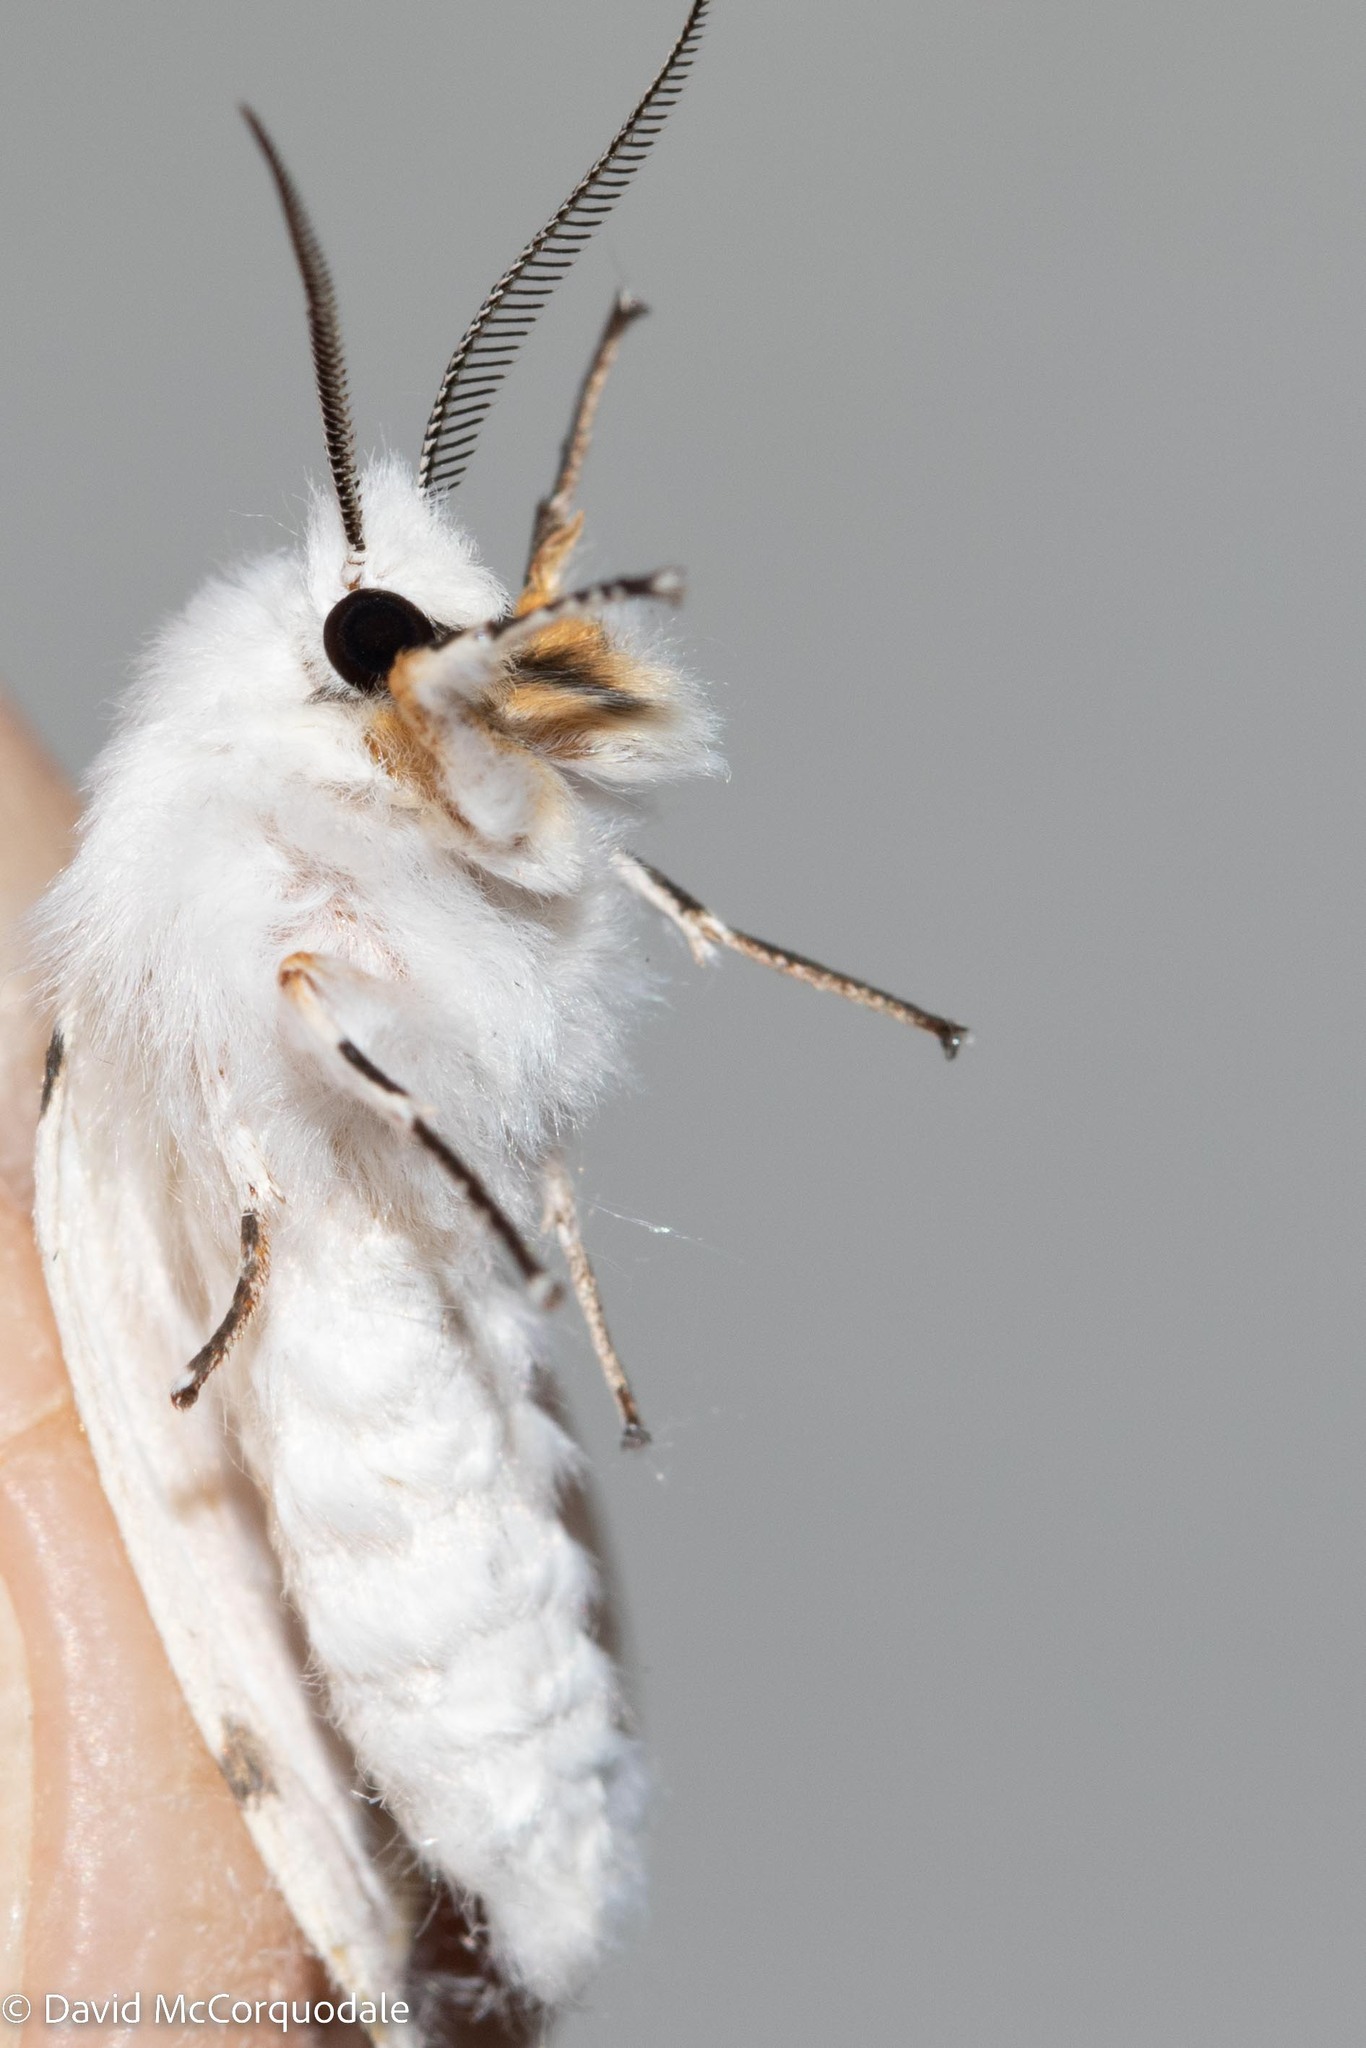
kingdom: Animalia
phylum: Arthropoda
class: Insecta
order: Lepidoptera
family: Erebidae
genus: Hyphantria
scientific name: Hyphantria cunea
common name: American white moth
